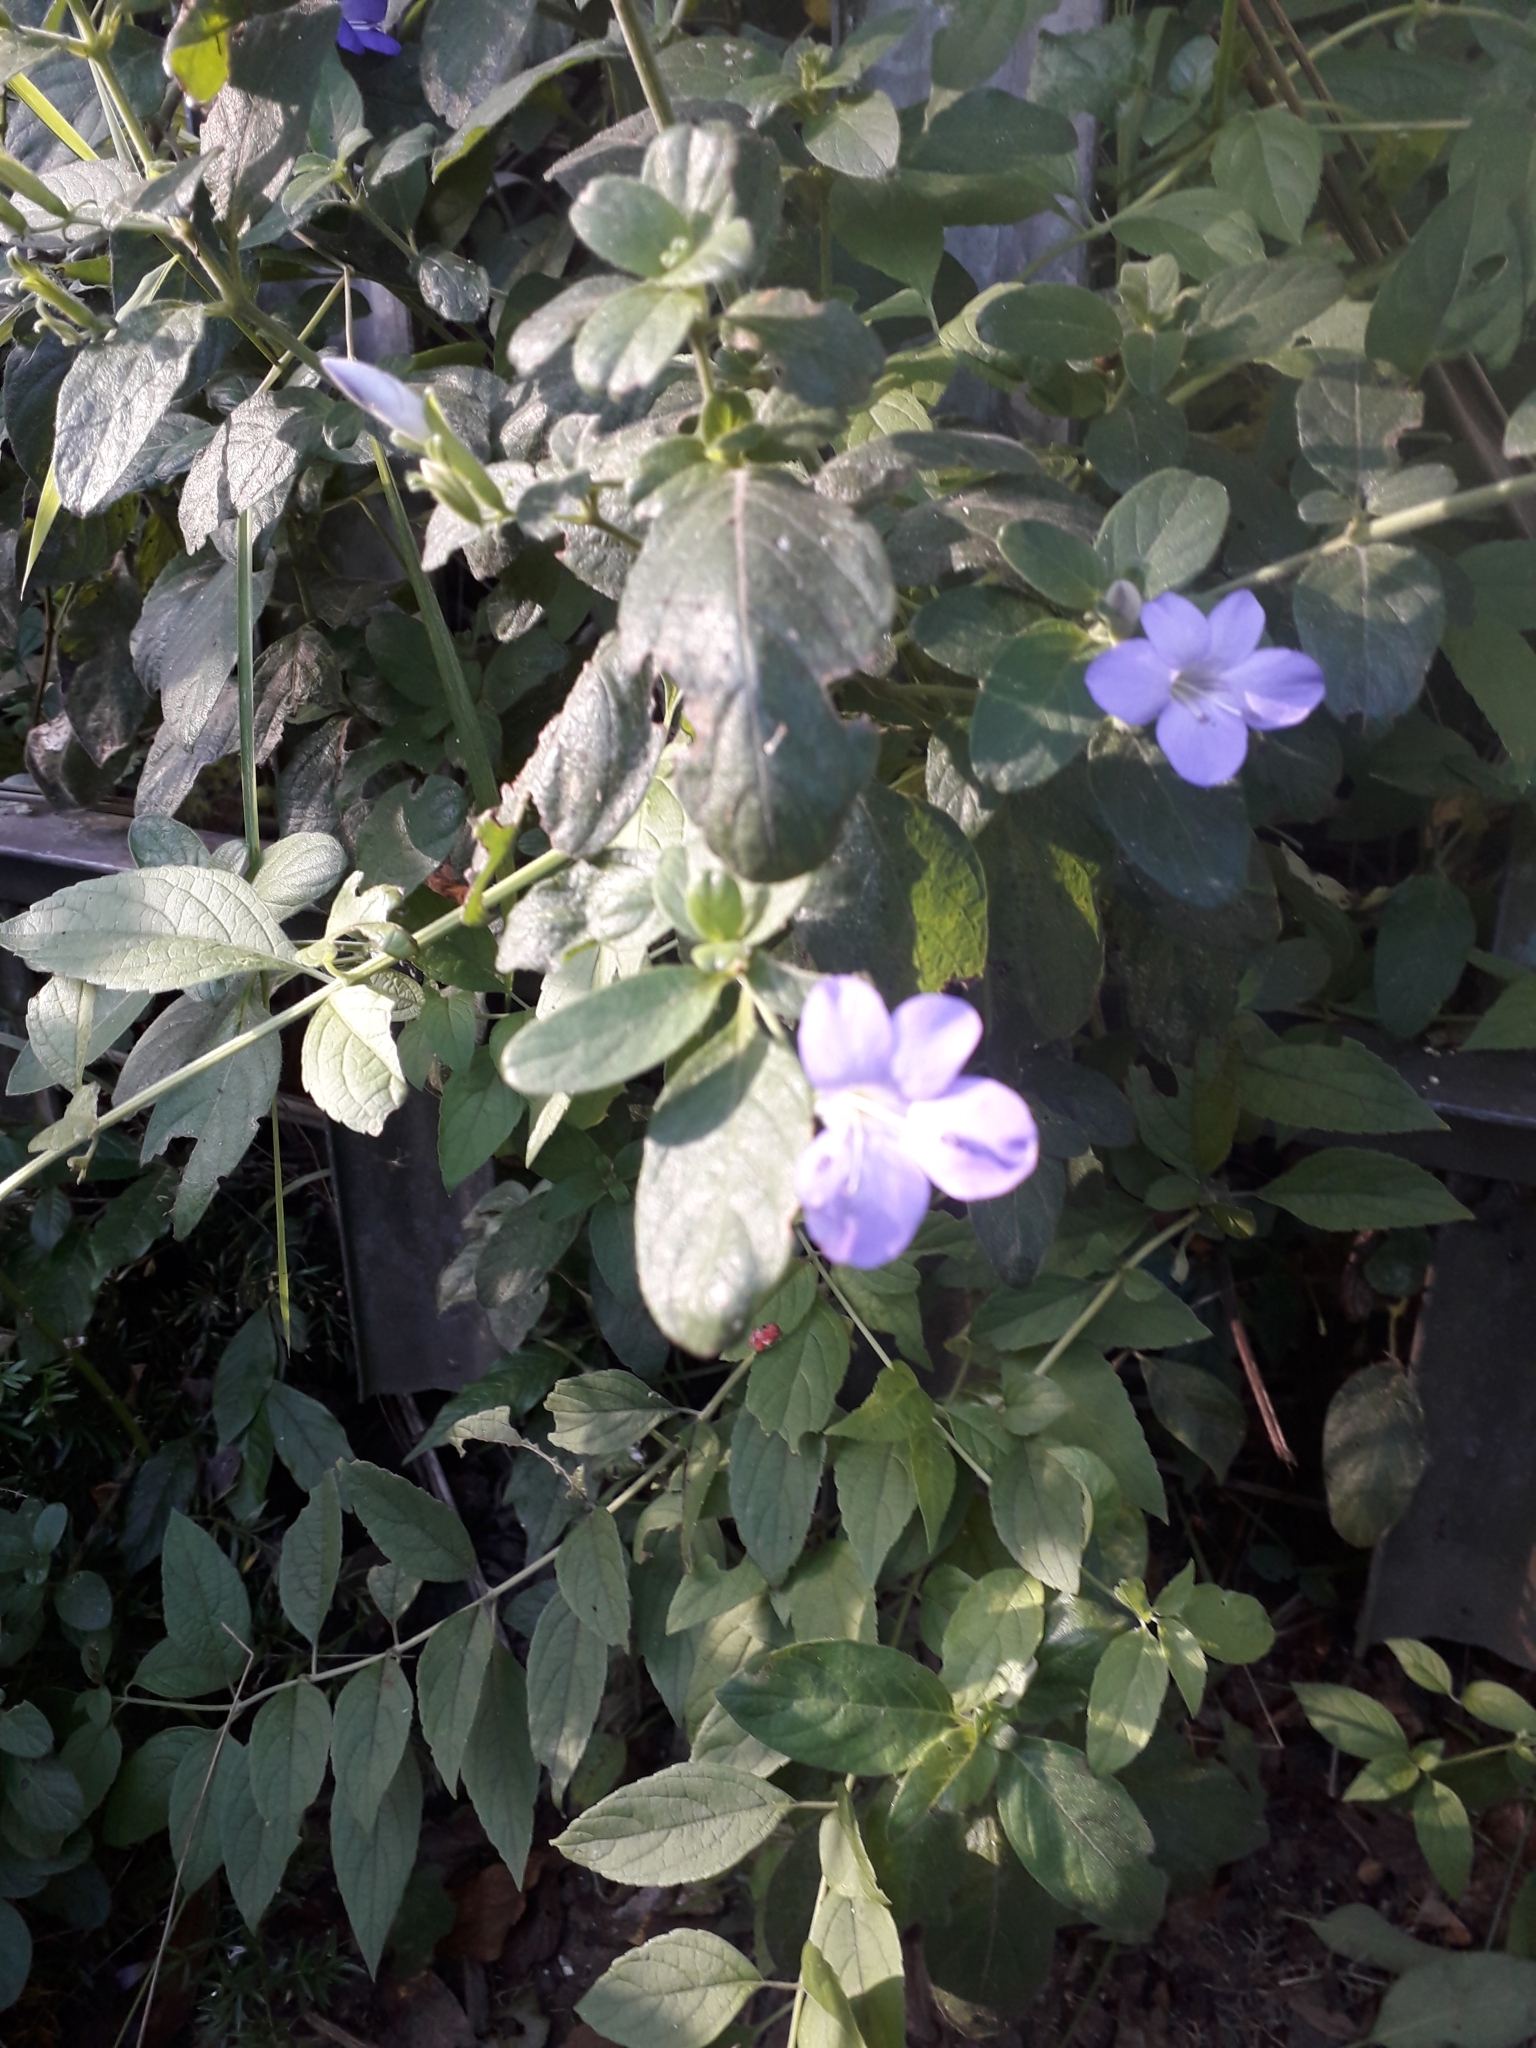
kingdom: Plantae
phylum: Tracheophyta
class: Magnoliopsida
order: Lamiales
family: Acanthaceae
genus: Barleria
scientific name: Barleria obtusa
